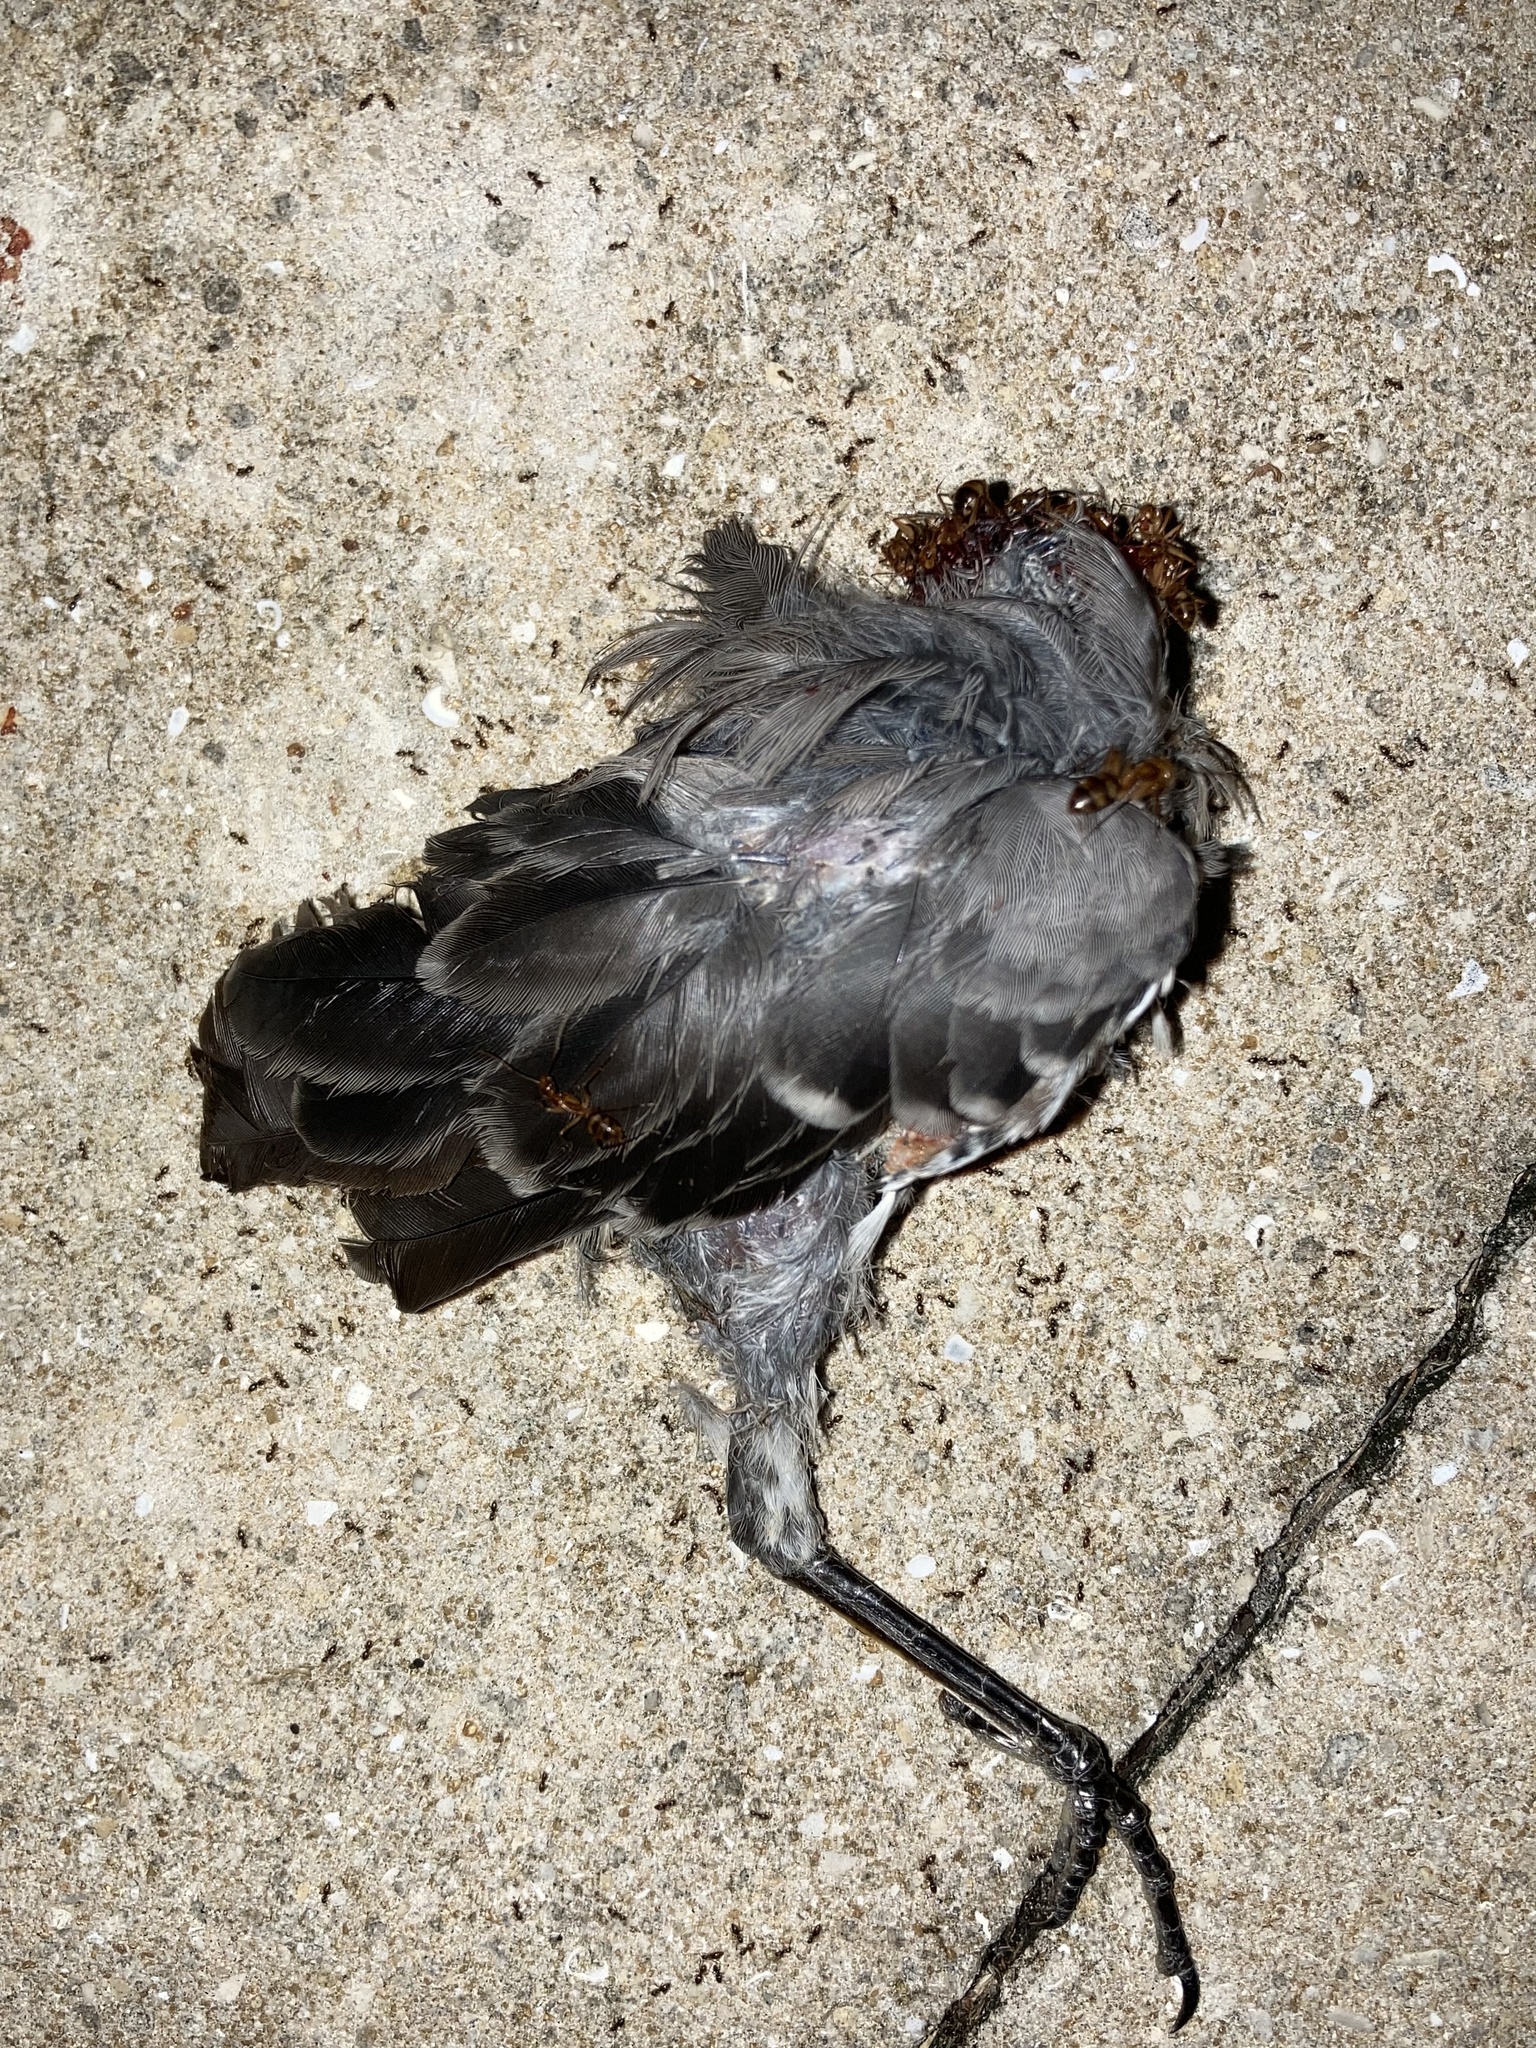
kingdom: Animalia
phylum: Chordata
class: Aves
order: Passeriformes
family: Mimidae
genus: Mimus
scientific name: Mimus polyglottos
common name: Northern mockingbird
